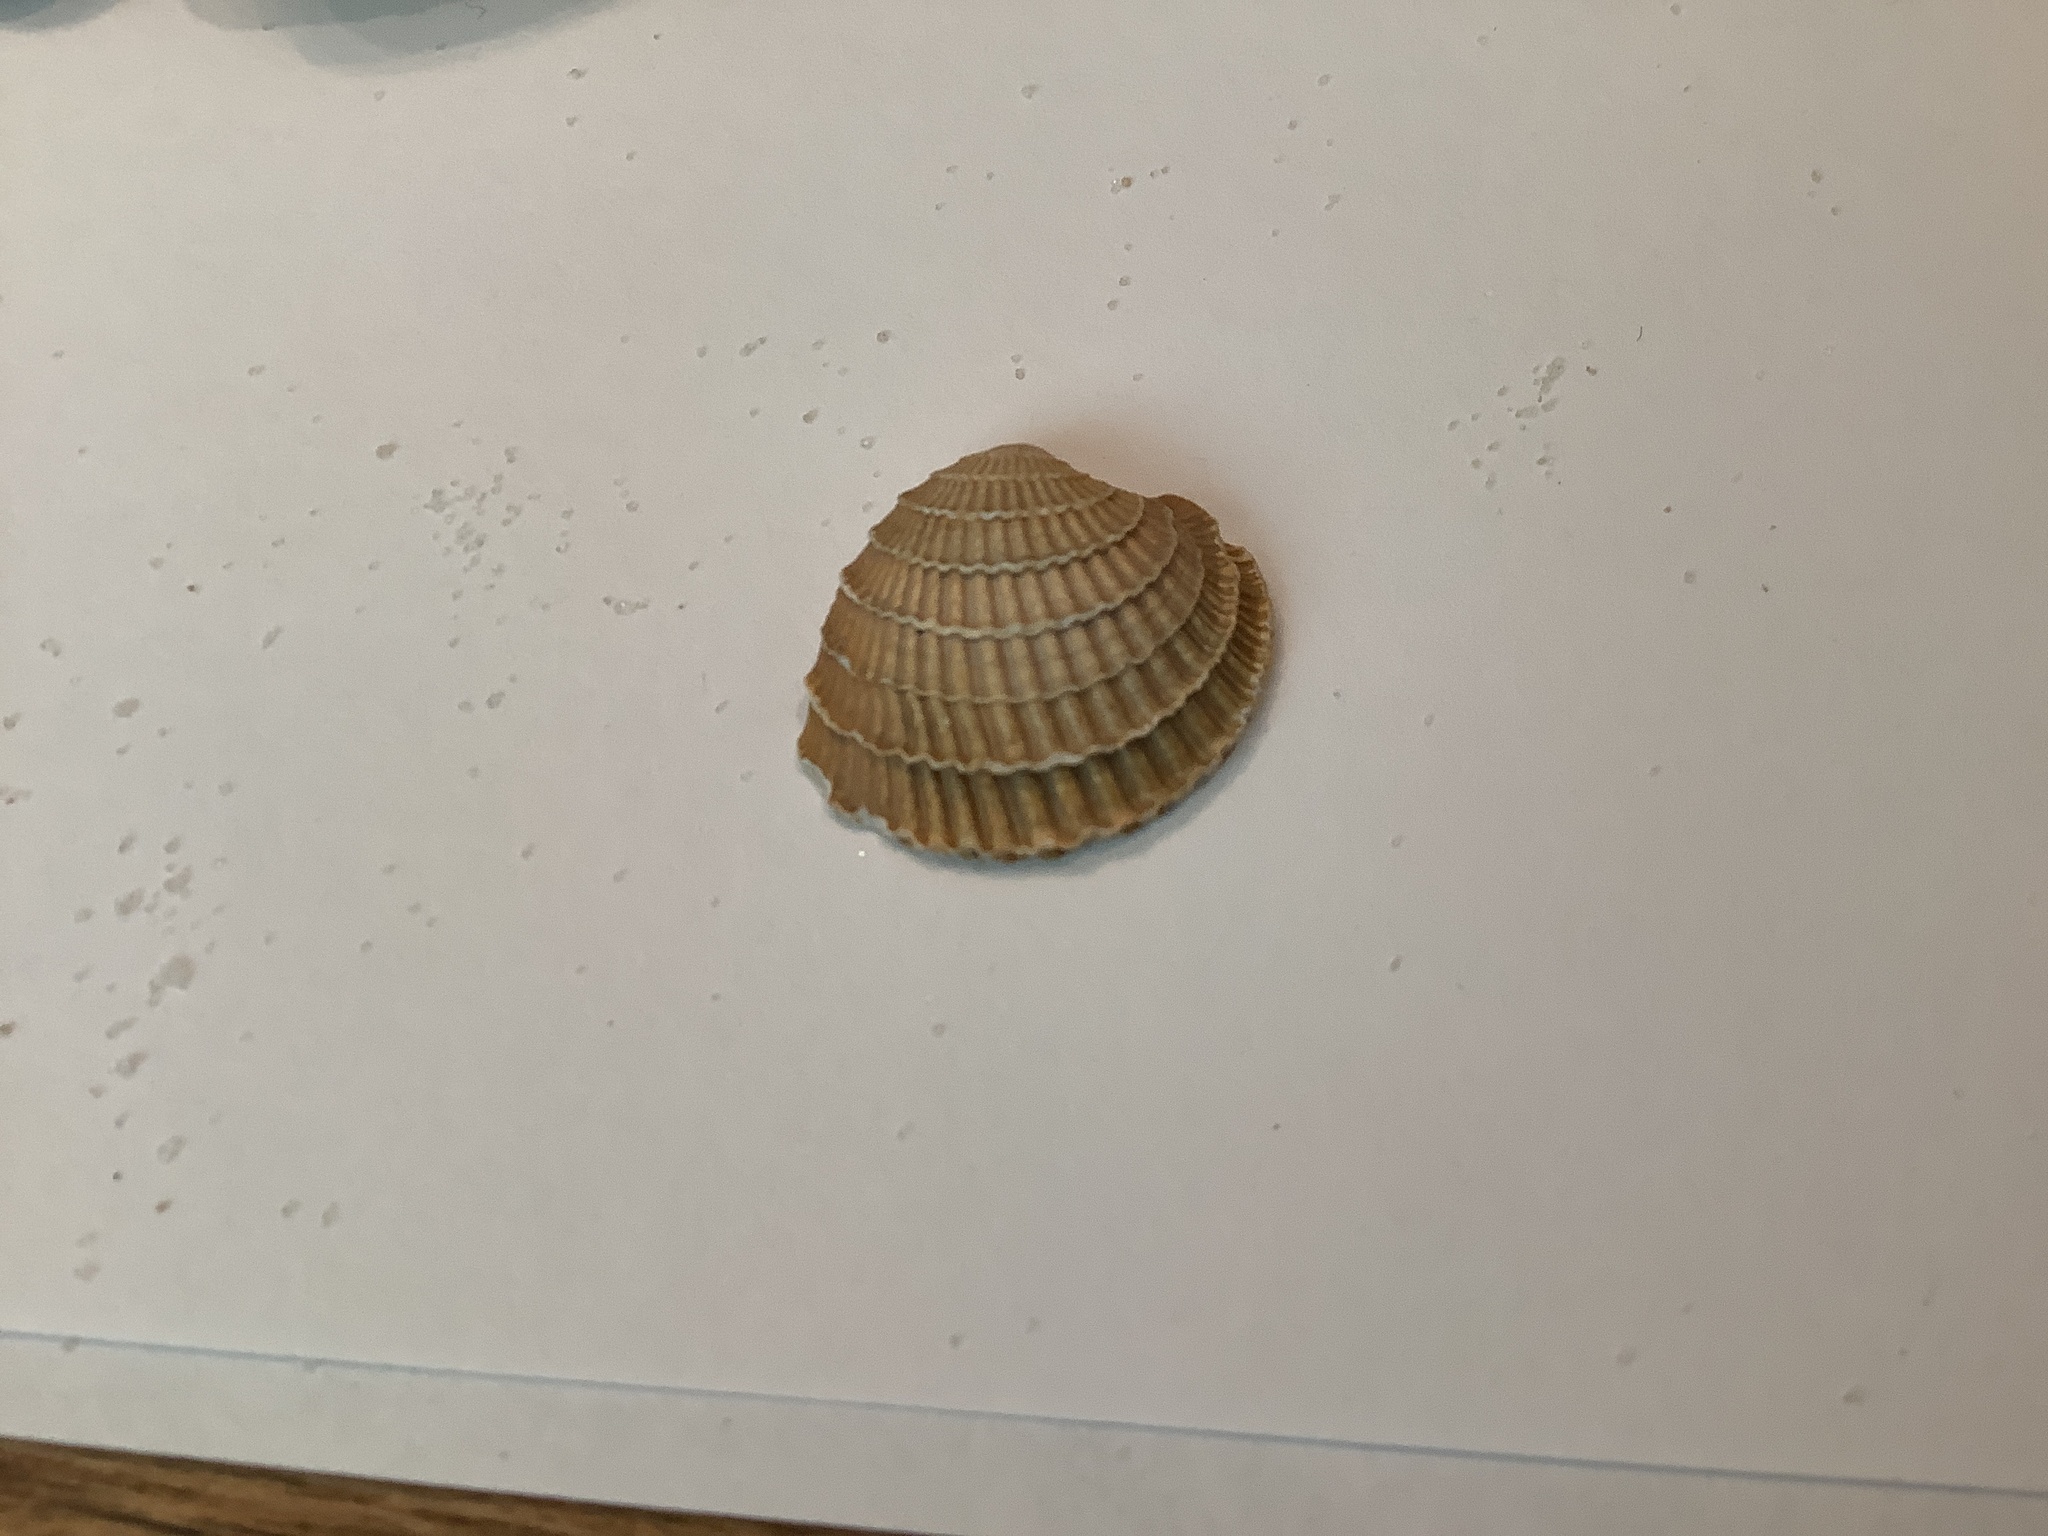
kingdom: Animalia
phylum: Mollusca
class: Bivalvia
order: Venerida
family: Veneridae
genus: Chione
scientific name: Chione elevata
